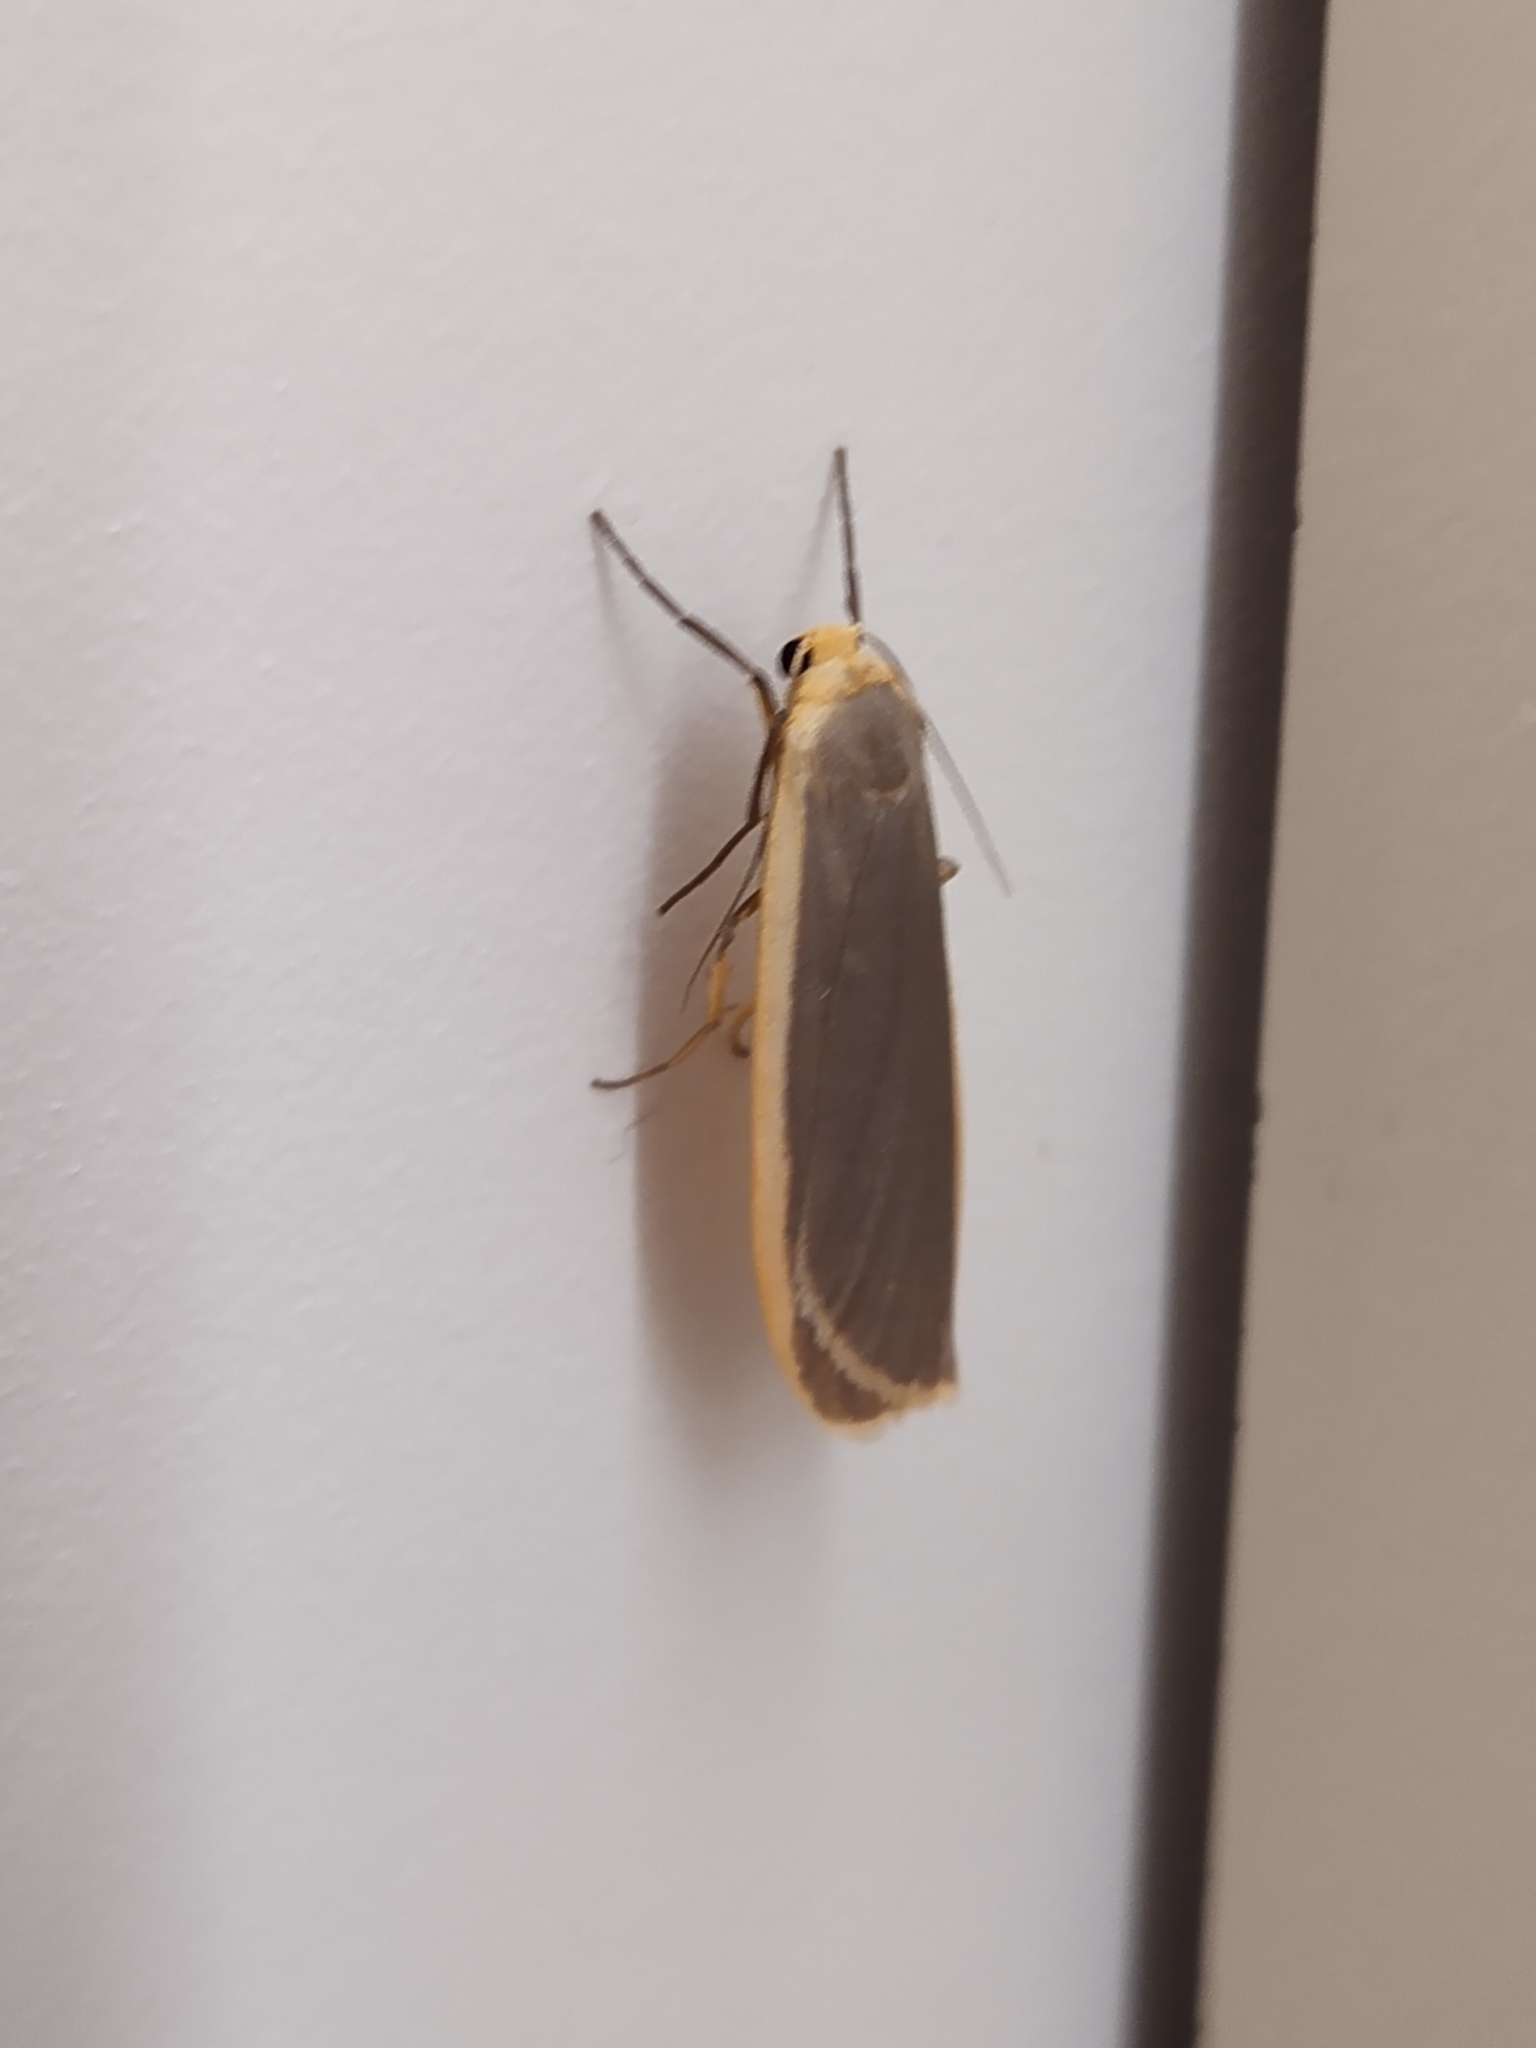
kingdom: Animalia
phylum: Arthropoda
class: Insecta
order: Lepidoptera
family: Erebidae
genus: Collita
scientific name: Collita griseola
